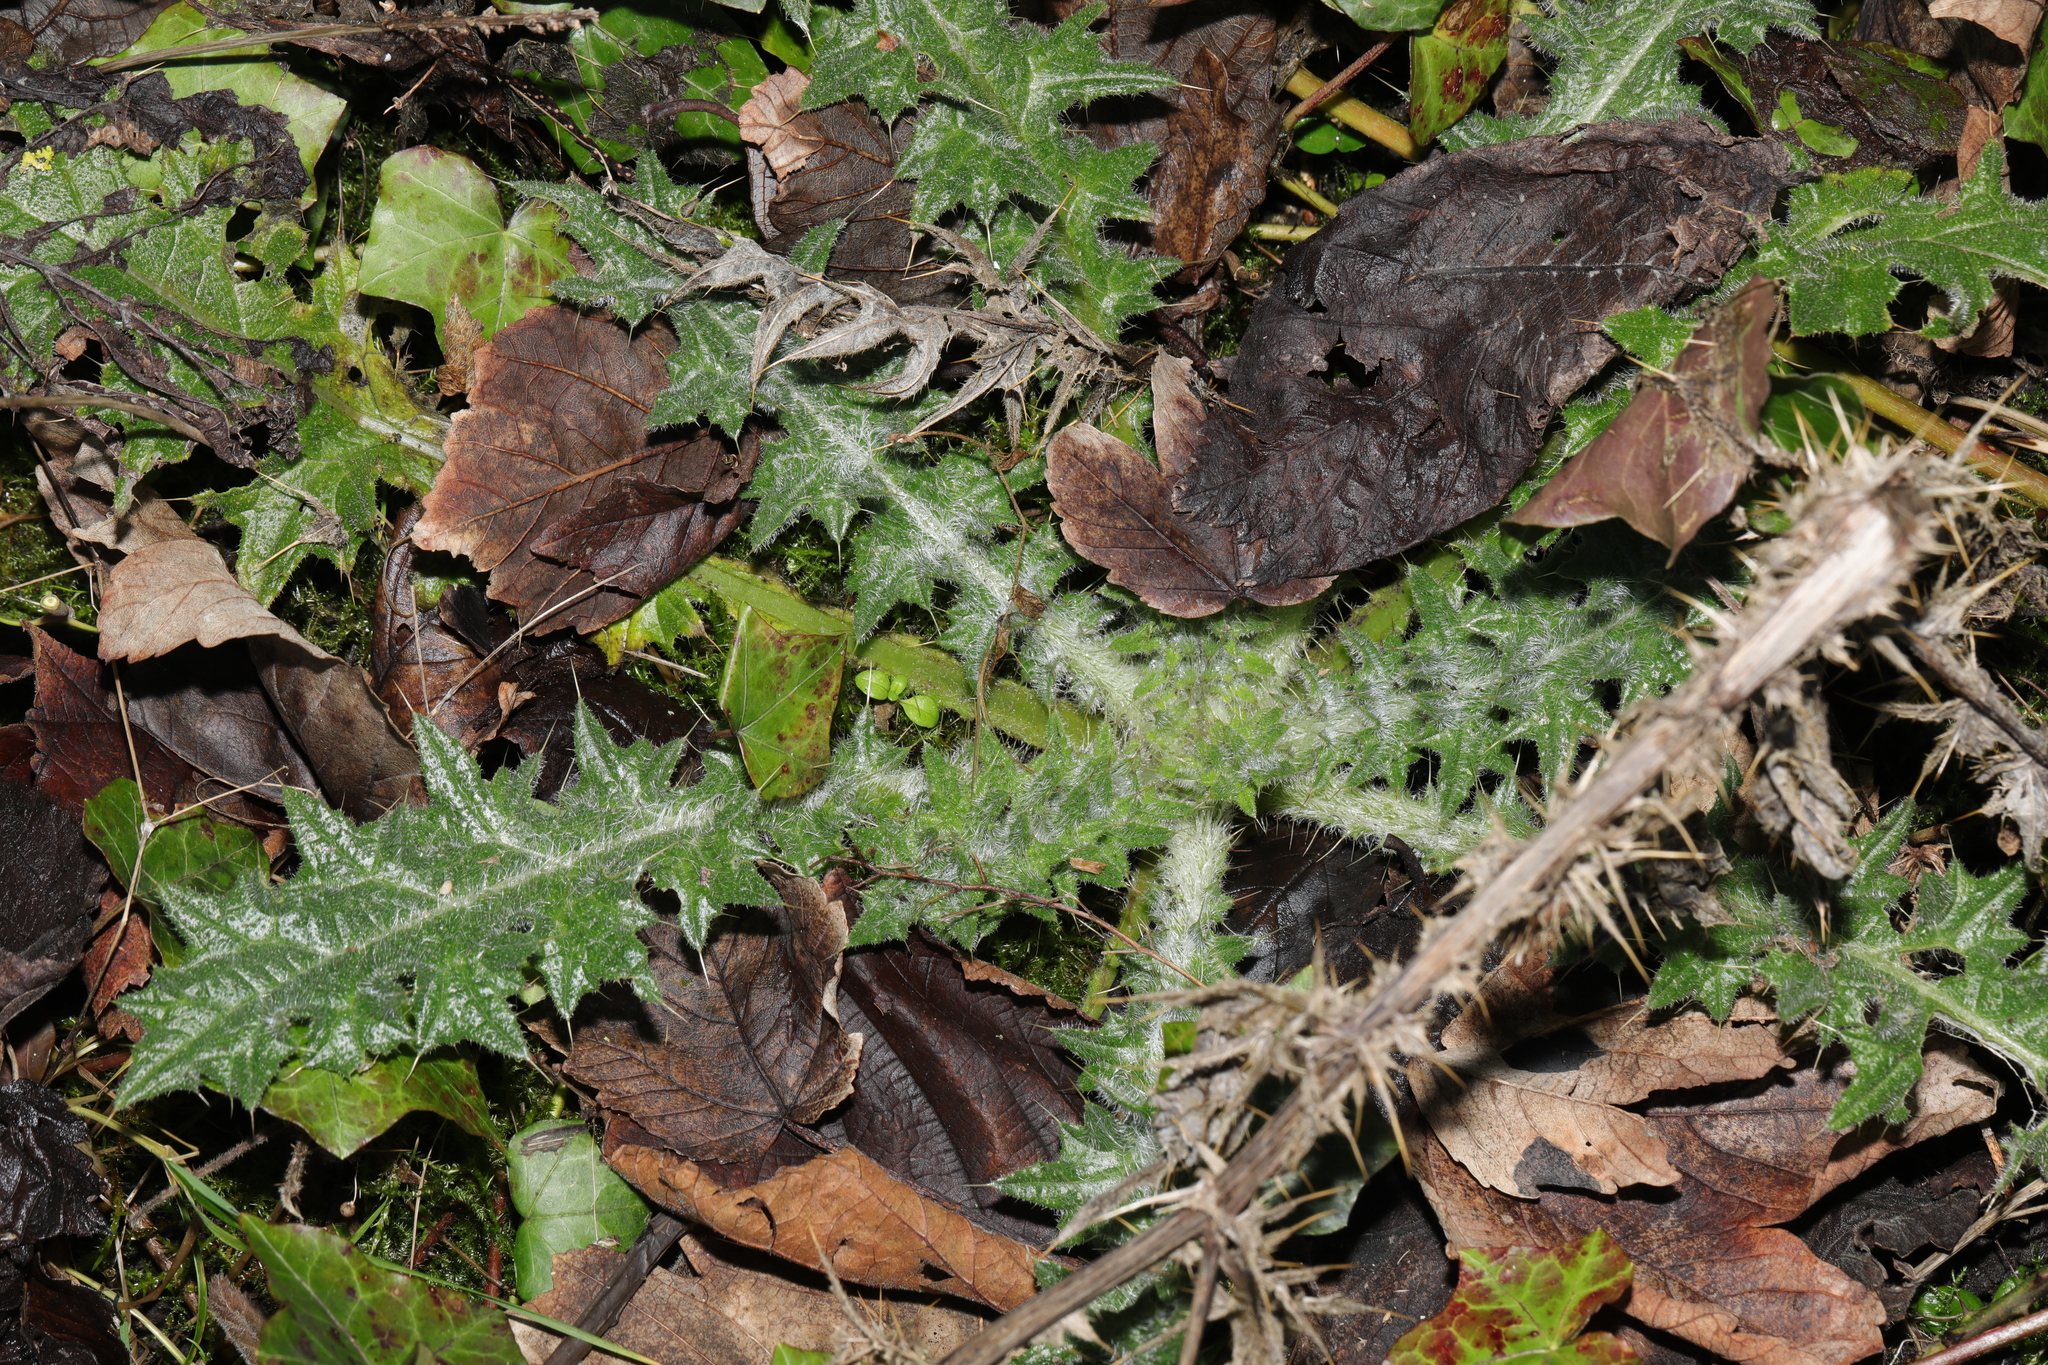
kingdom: Plantae
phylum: Tracheophyta
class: Magnoliopsida
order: Asterales
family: Asteraceae
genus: Cirsium
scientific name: Cirsium vulgare
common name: Bull thistle
